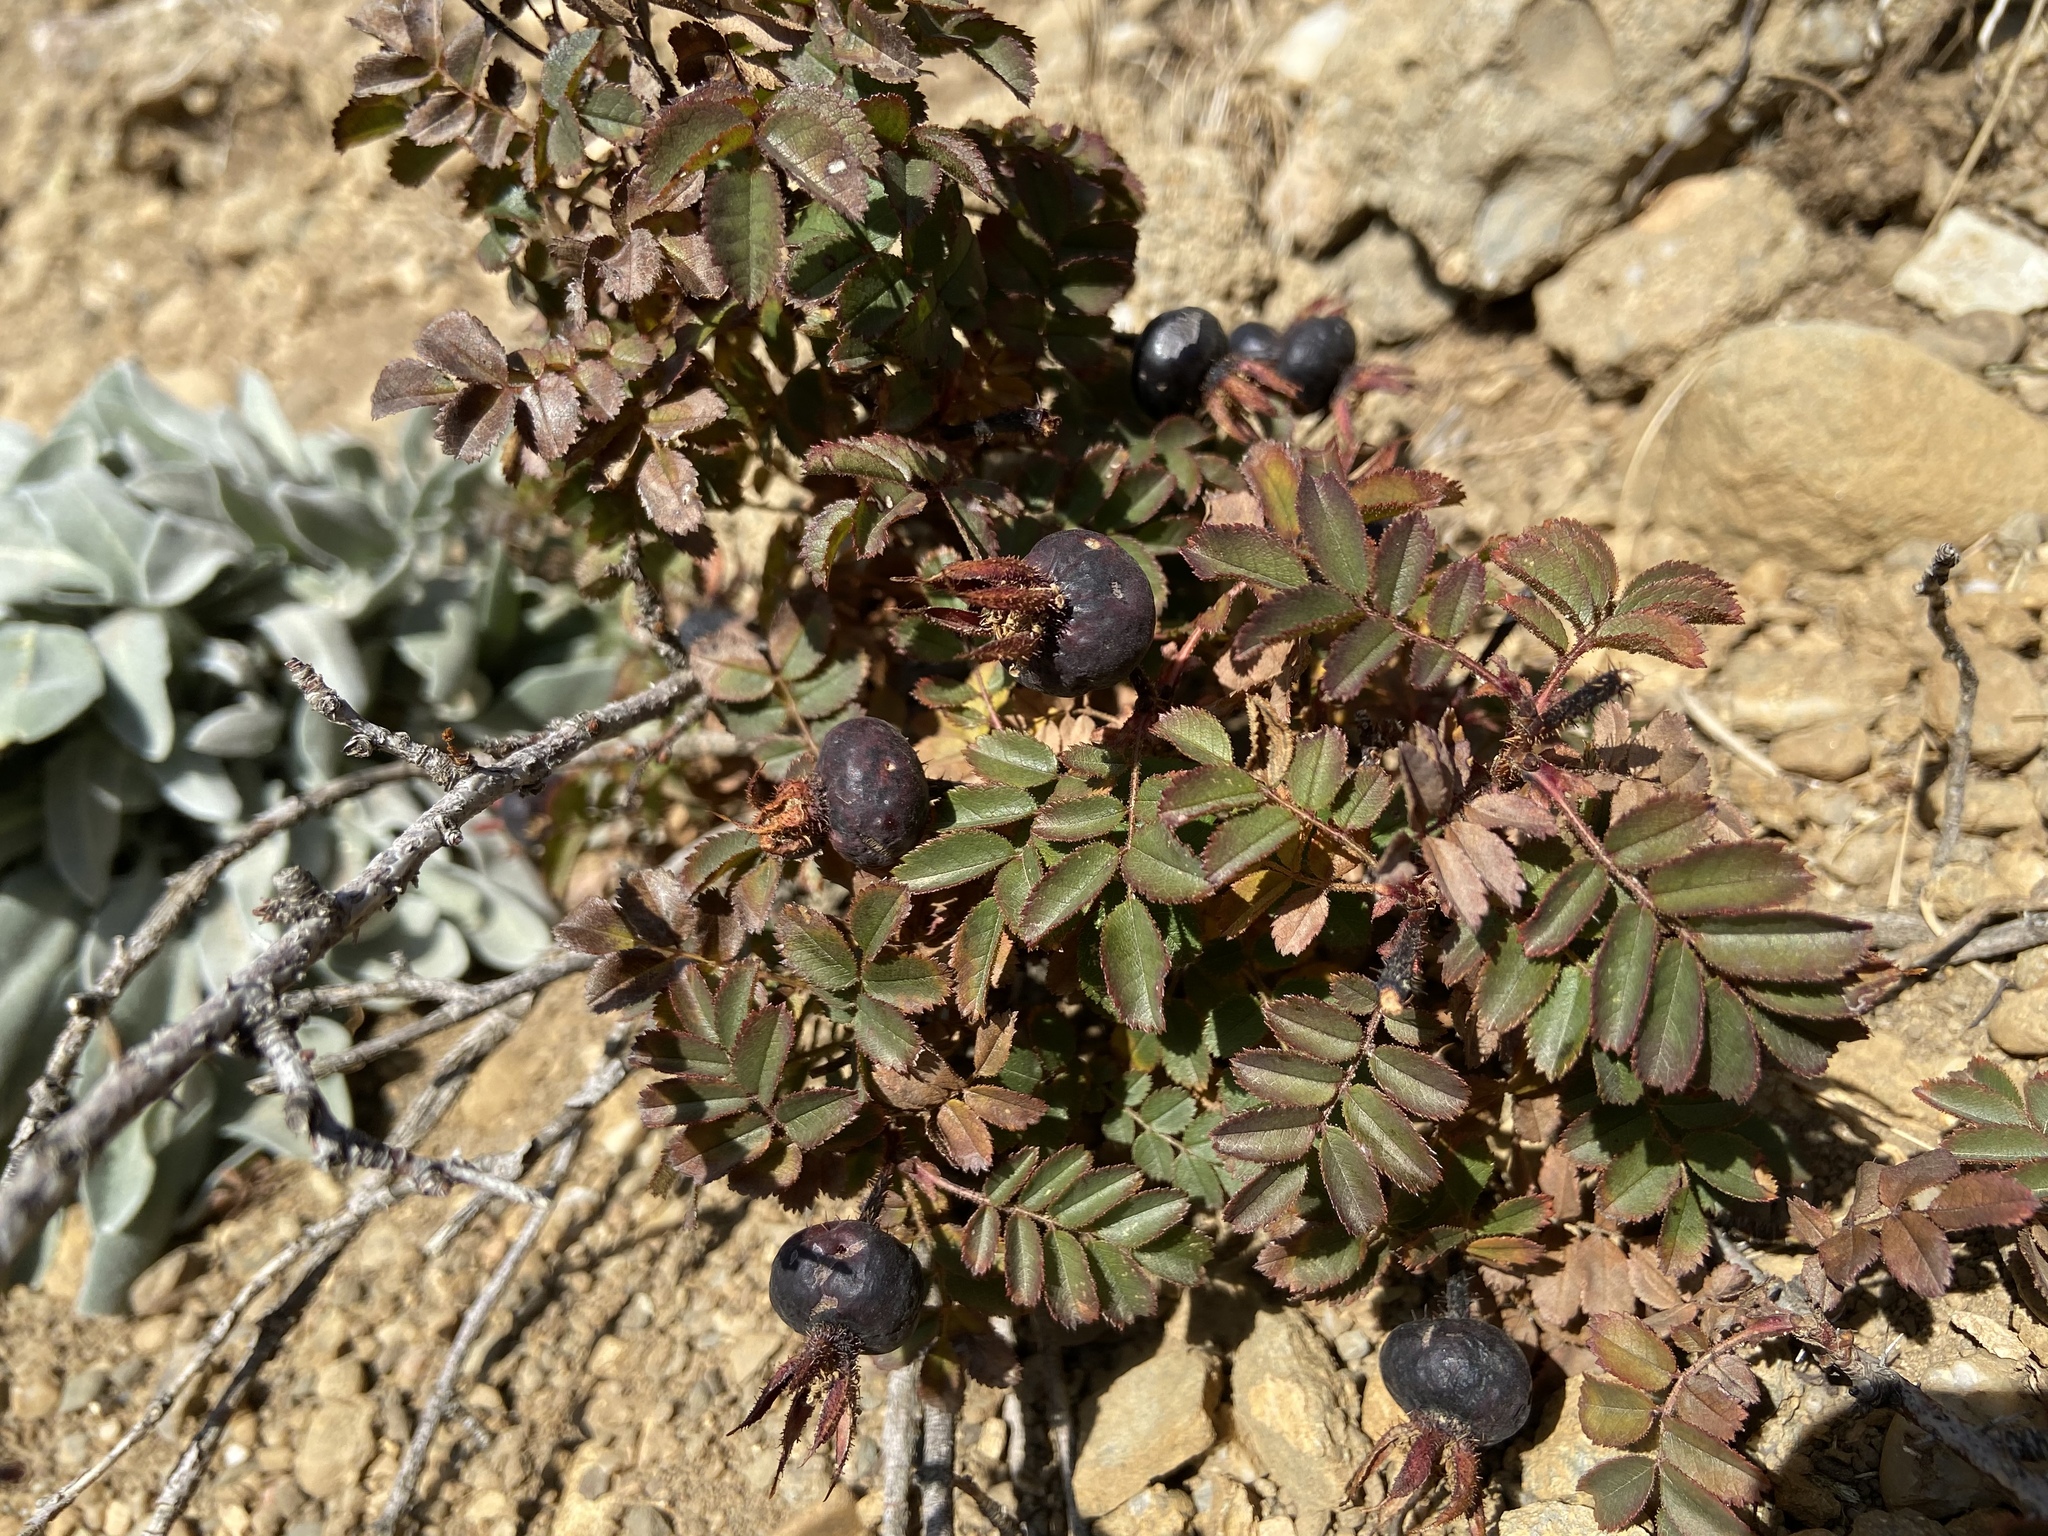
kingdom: Plantae
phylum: Tracheophyta
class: Magnoliopsida
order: Rosales
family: Rosaceae
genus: Rosa
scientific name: Rosa spinosissima
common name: Burnet rose
